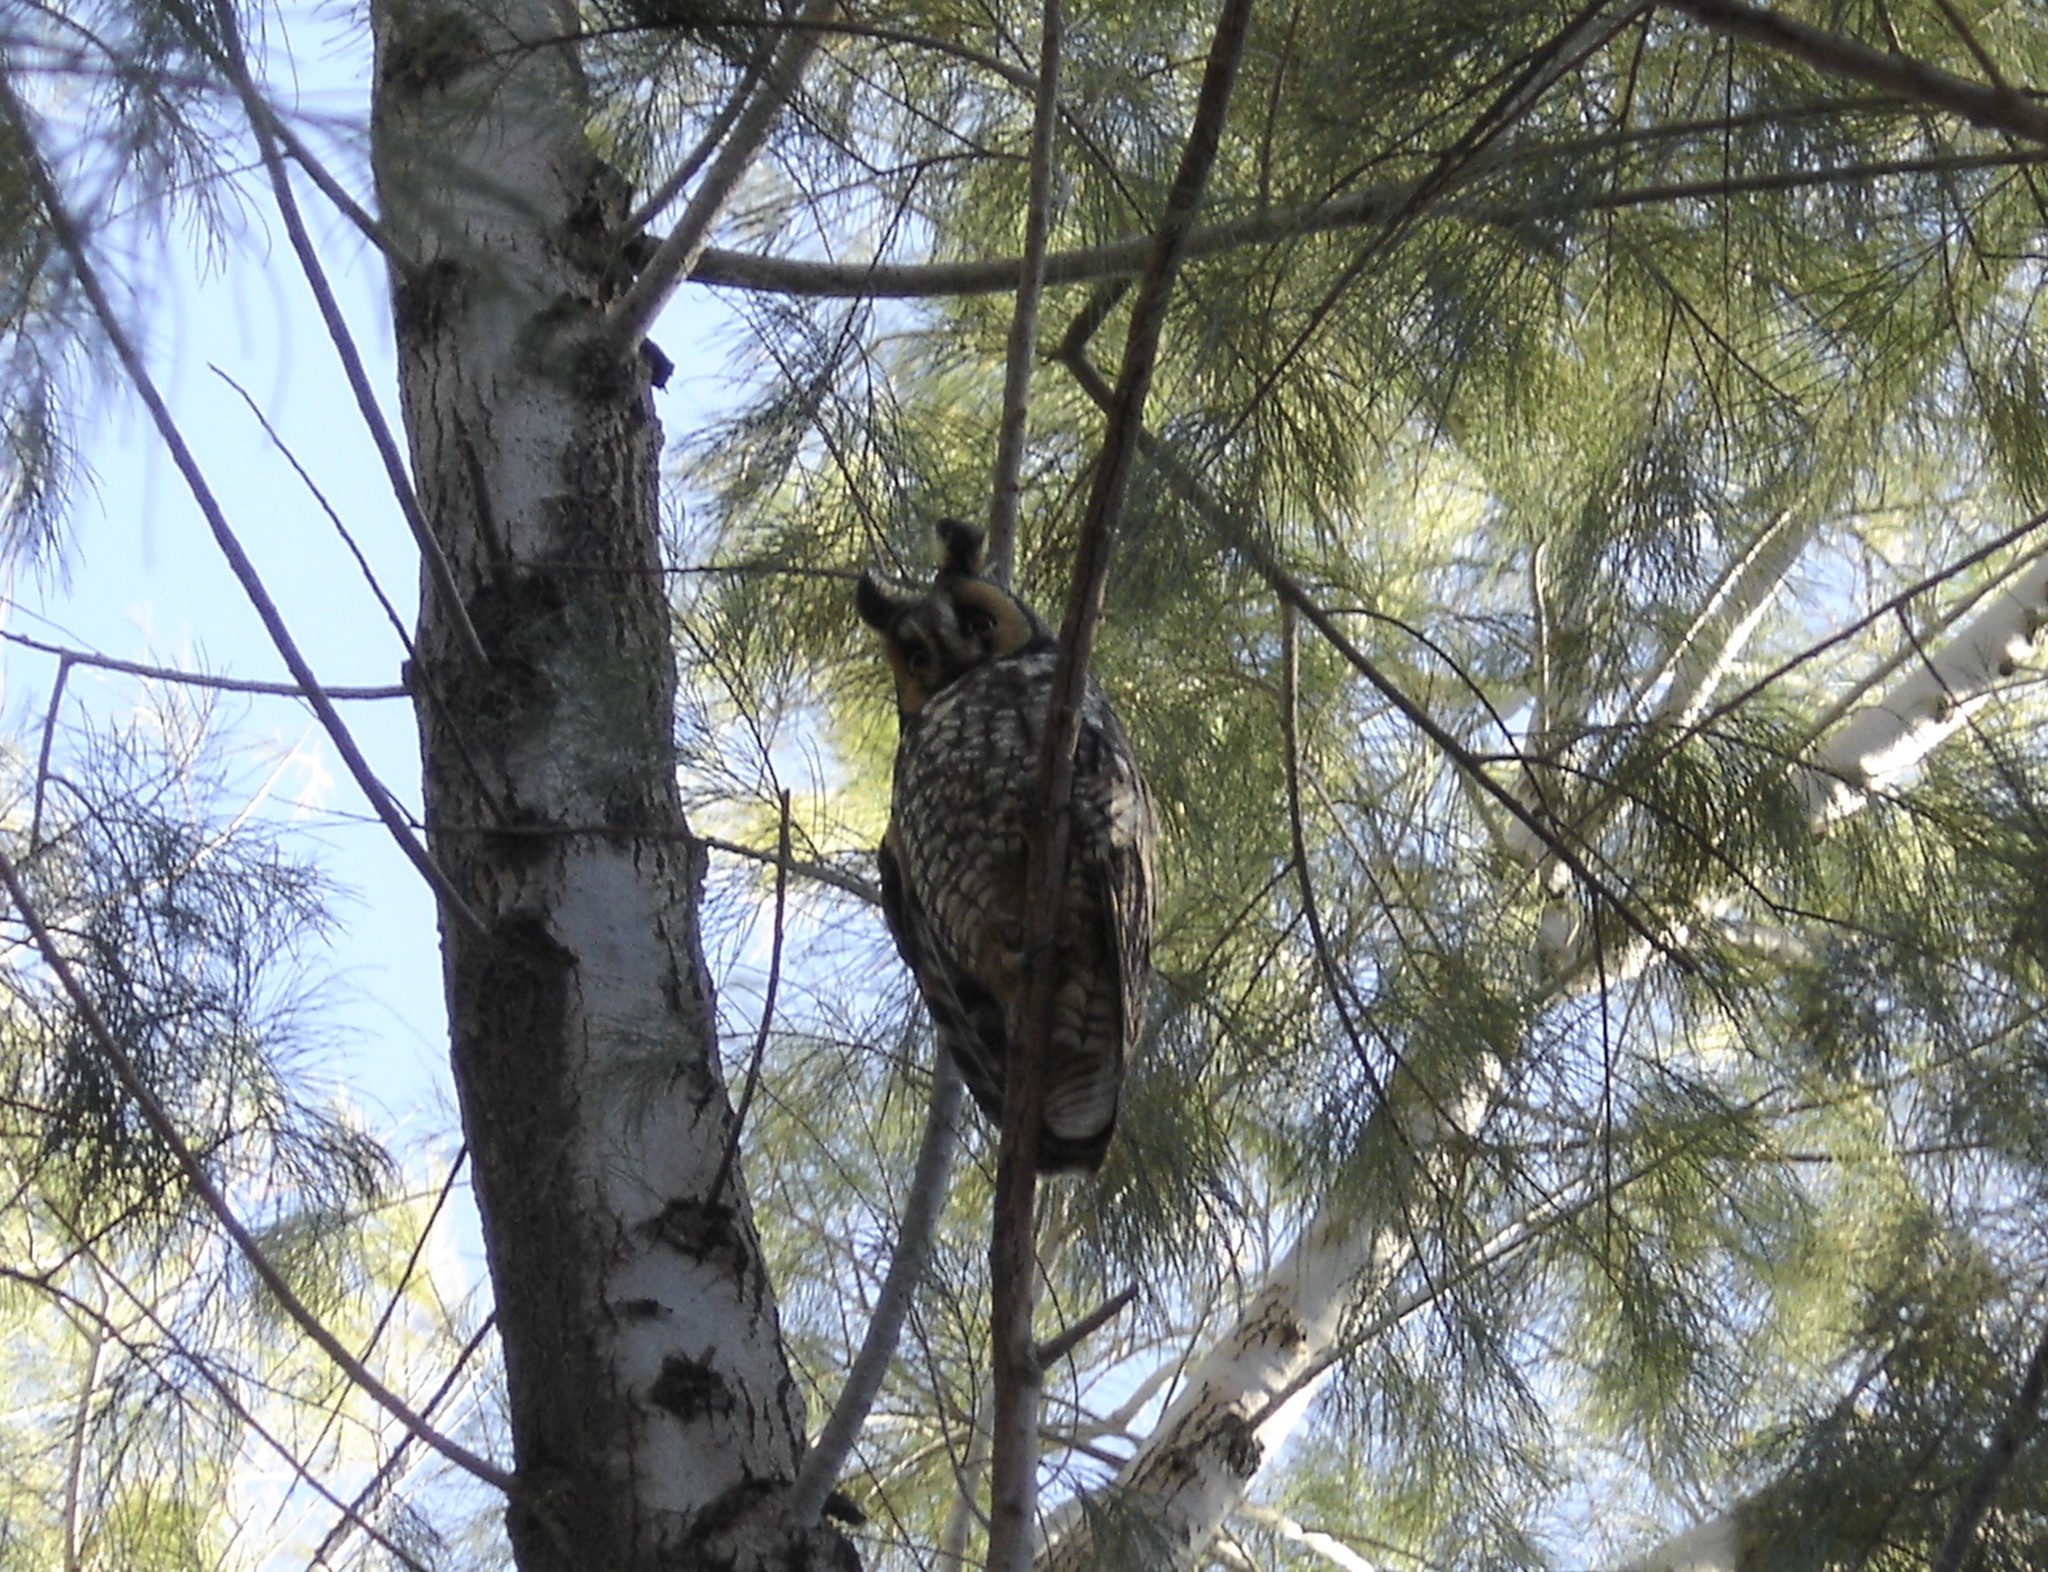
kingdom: Animalia
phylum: Chordata
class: Aves
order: Strigiformes
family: Strigidae
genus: Asio
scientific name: Asio otus
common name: Long-eared owl
